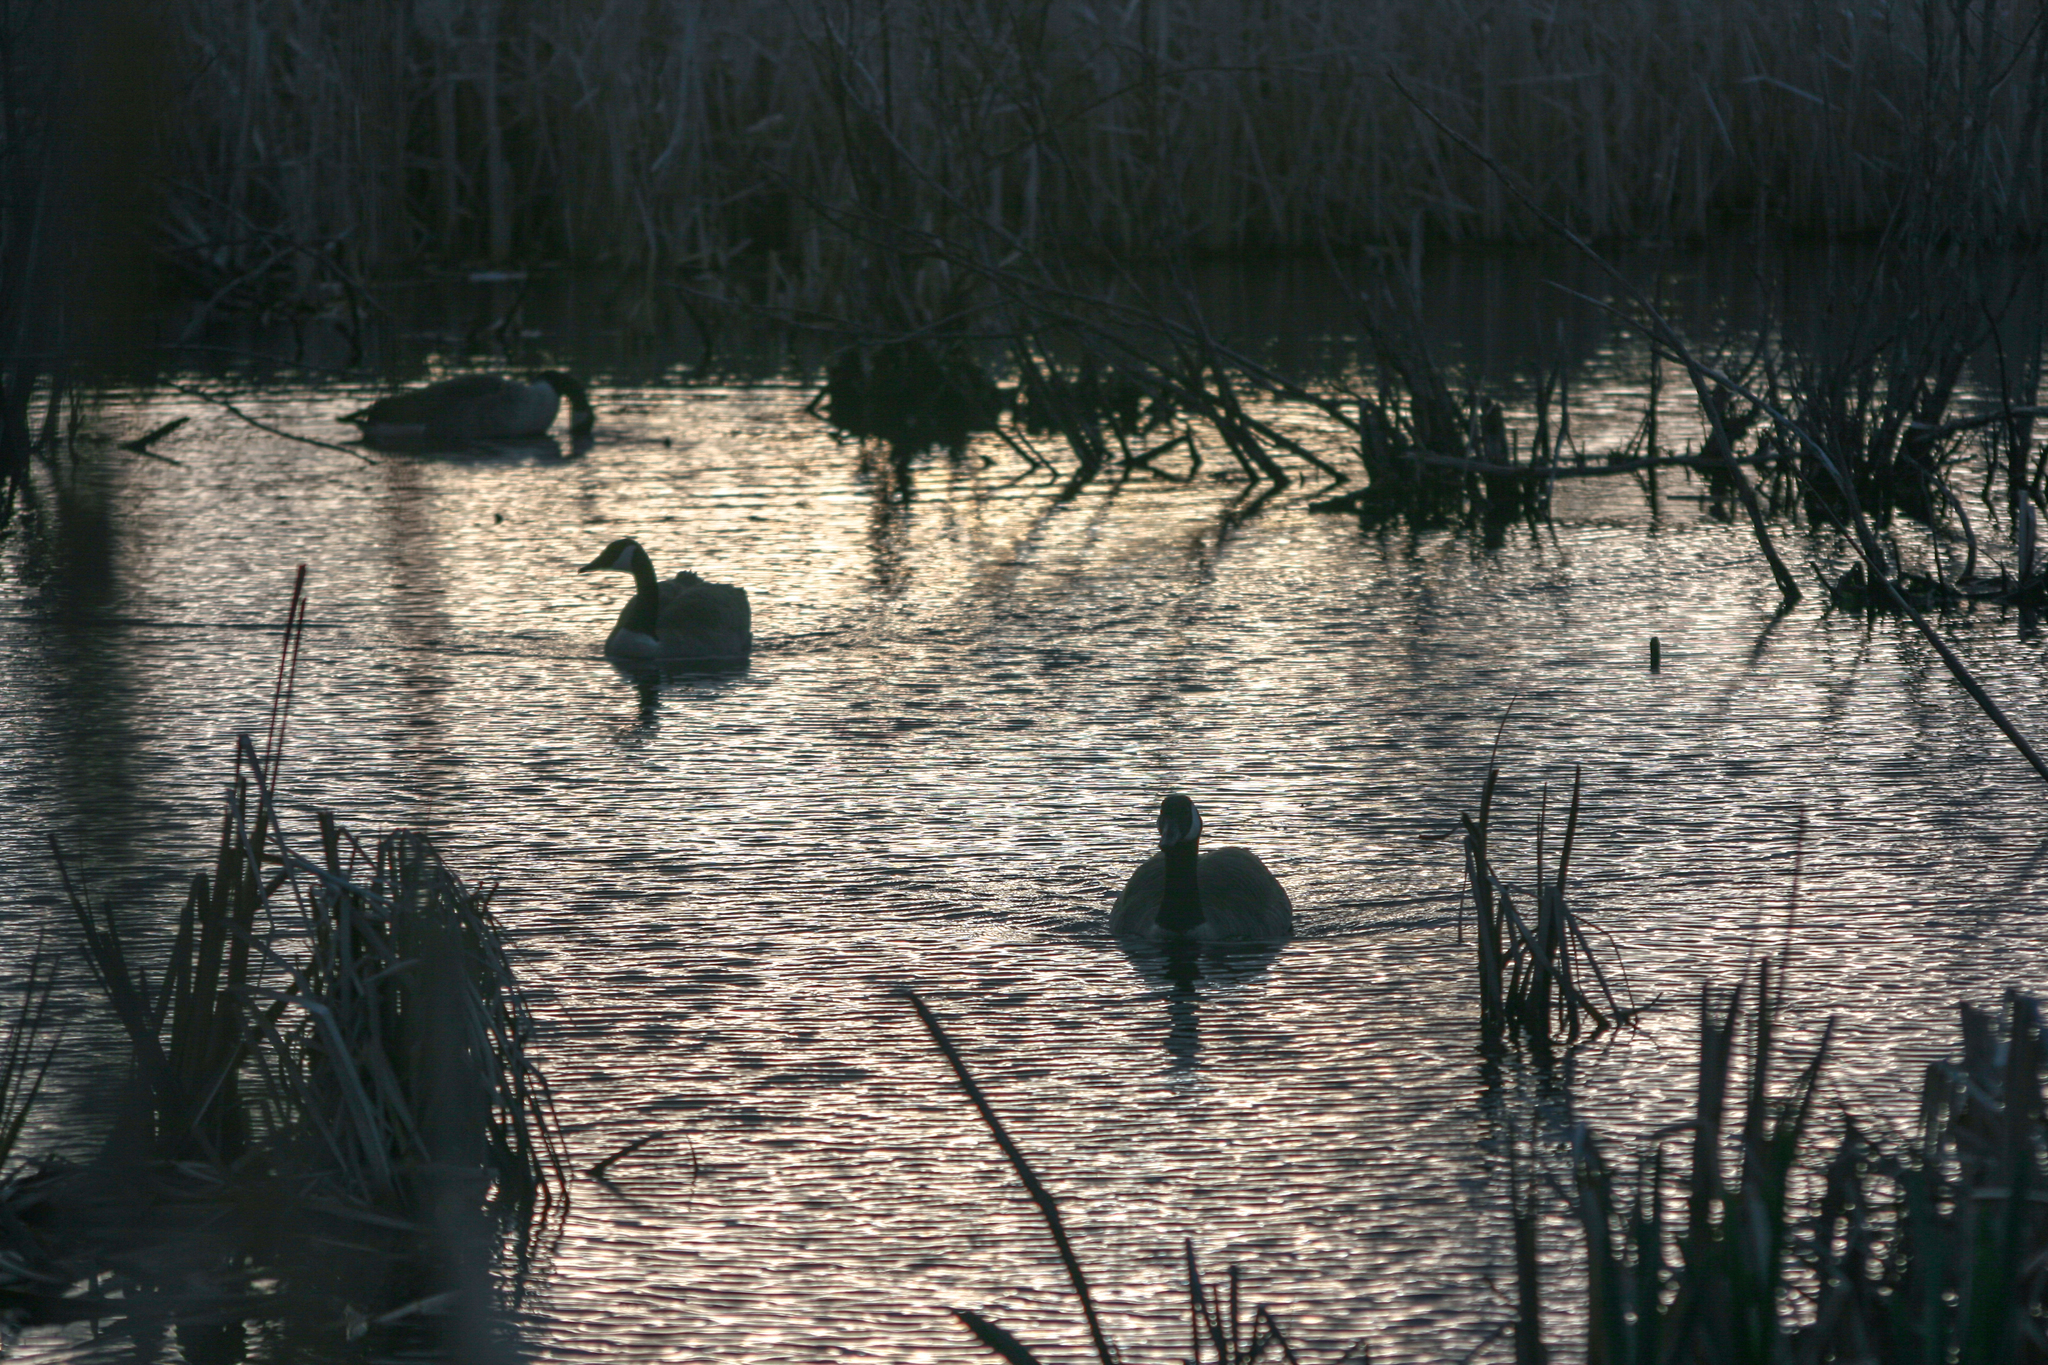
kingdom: Animalia
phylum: Chordata
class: Aves
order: Anseriformes
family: Anatidae
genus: Branta
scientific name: Branta canadensis
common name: Canada goose
